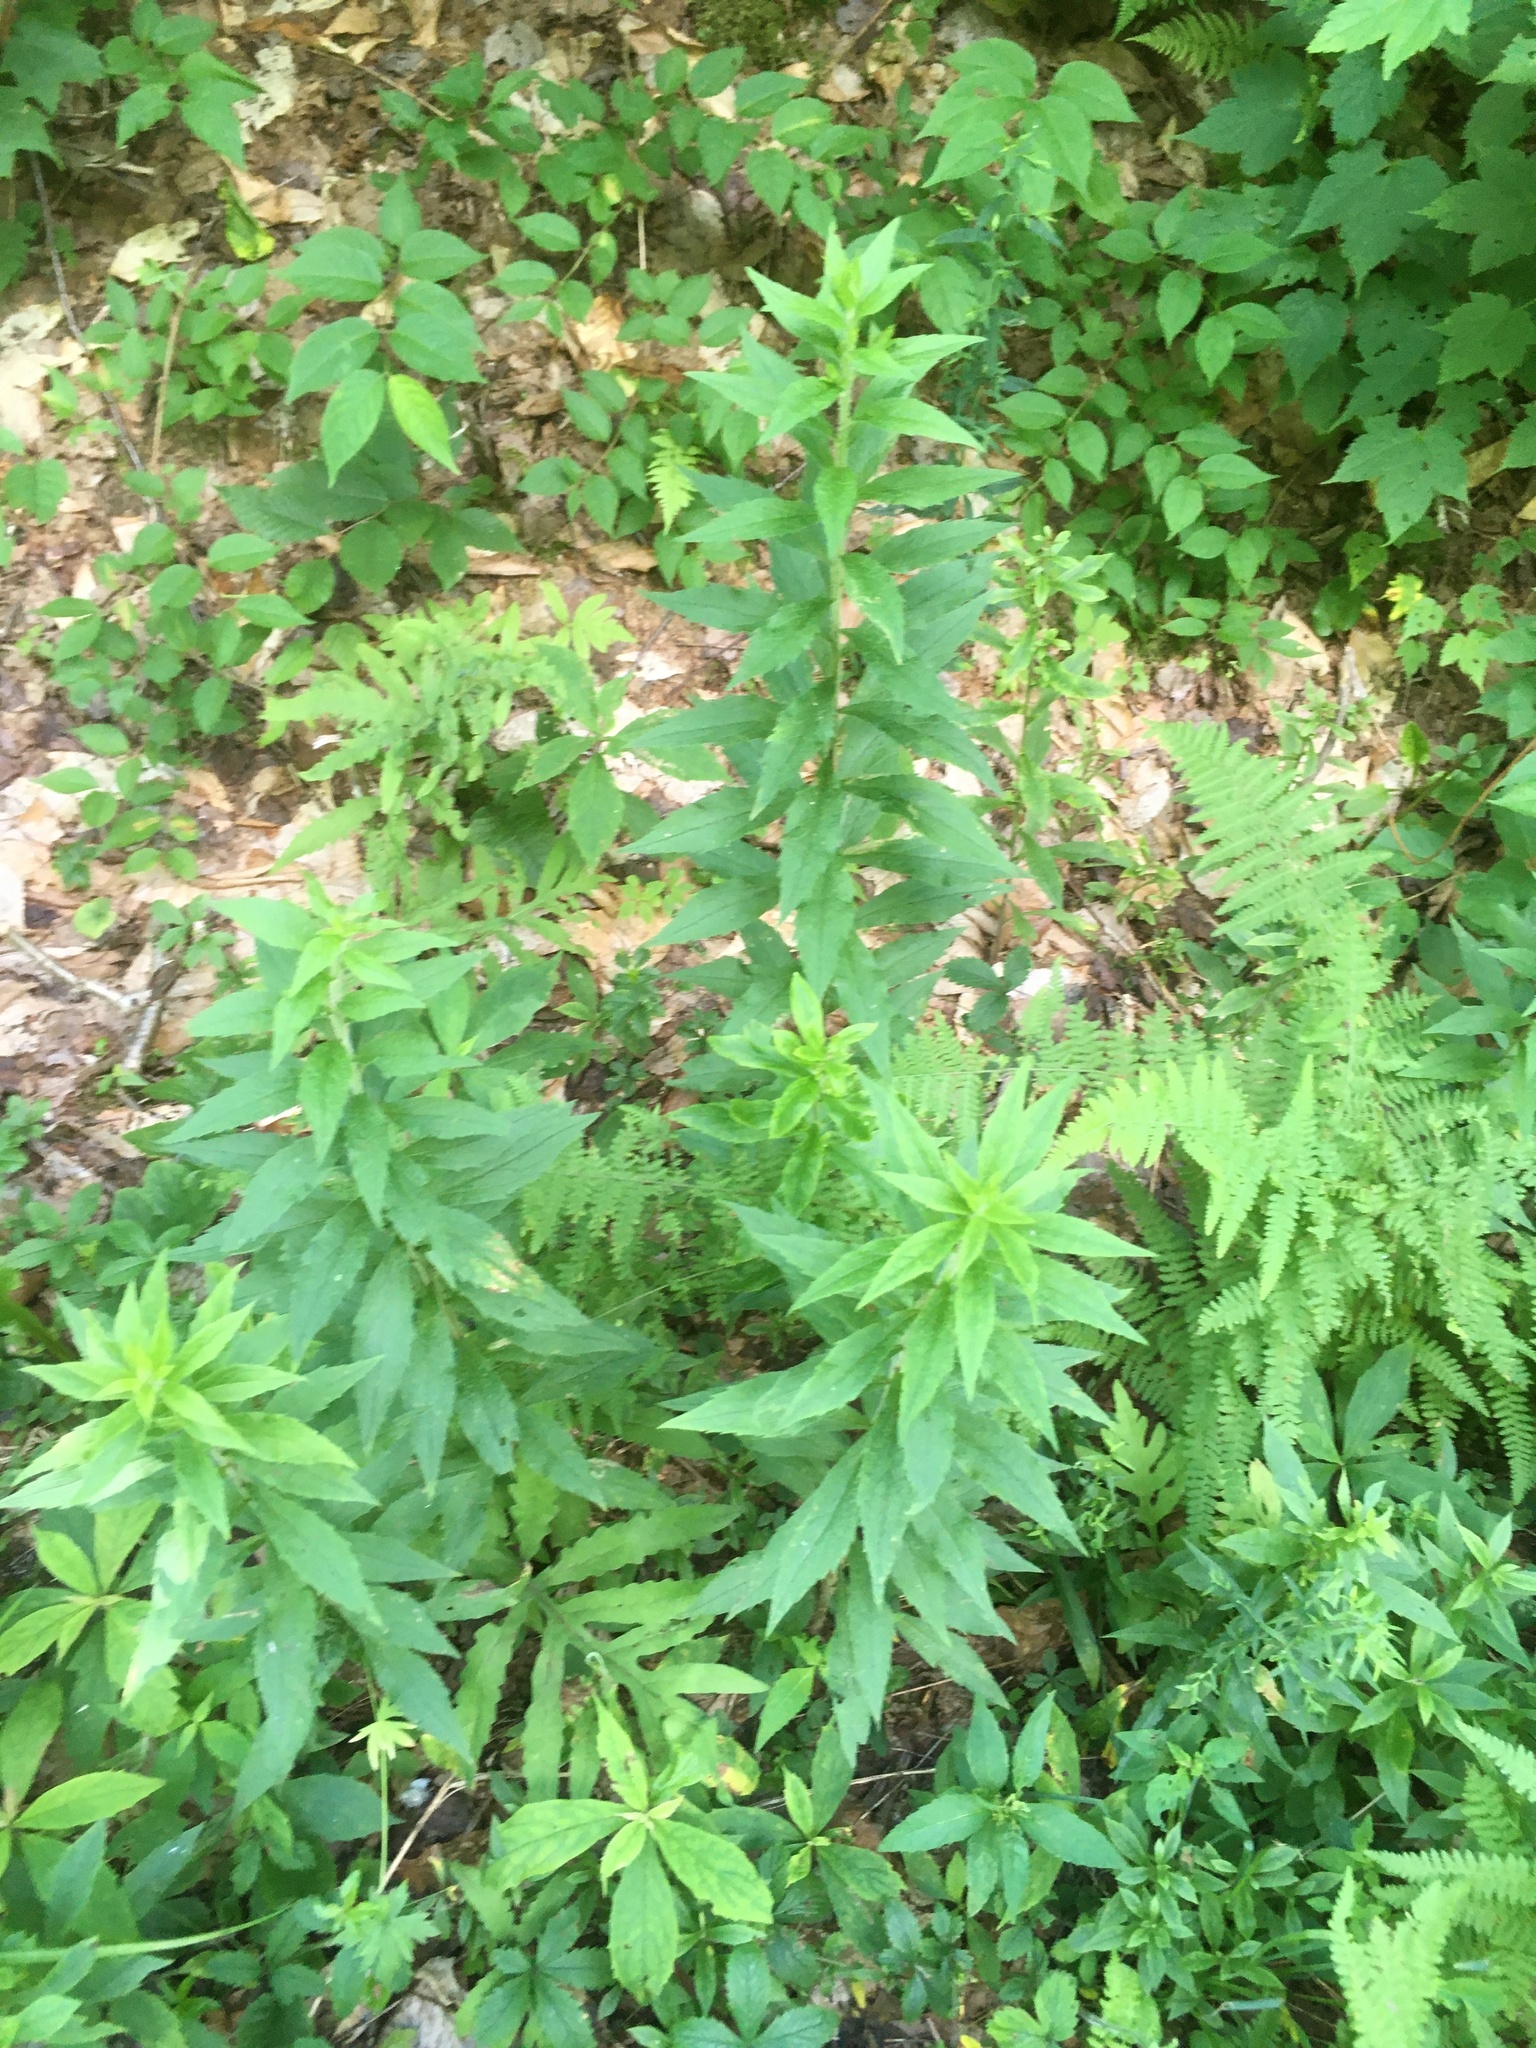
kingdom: Plantae
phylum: Tracheophyta
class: Magnoliopsida
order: Asterales
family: Asteraceae
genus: Solidago
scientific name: Solidago rugosa
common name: Rough-stemmed goldenrod
